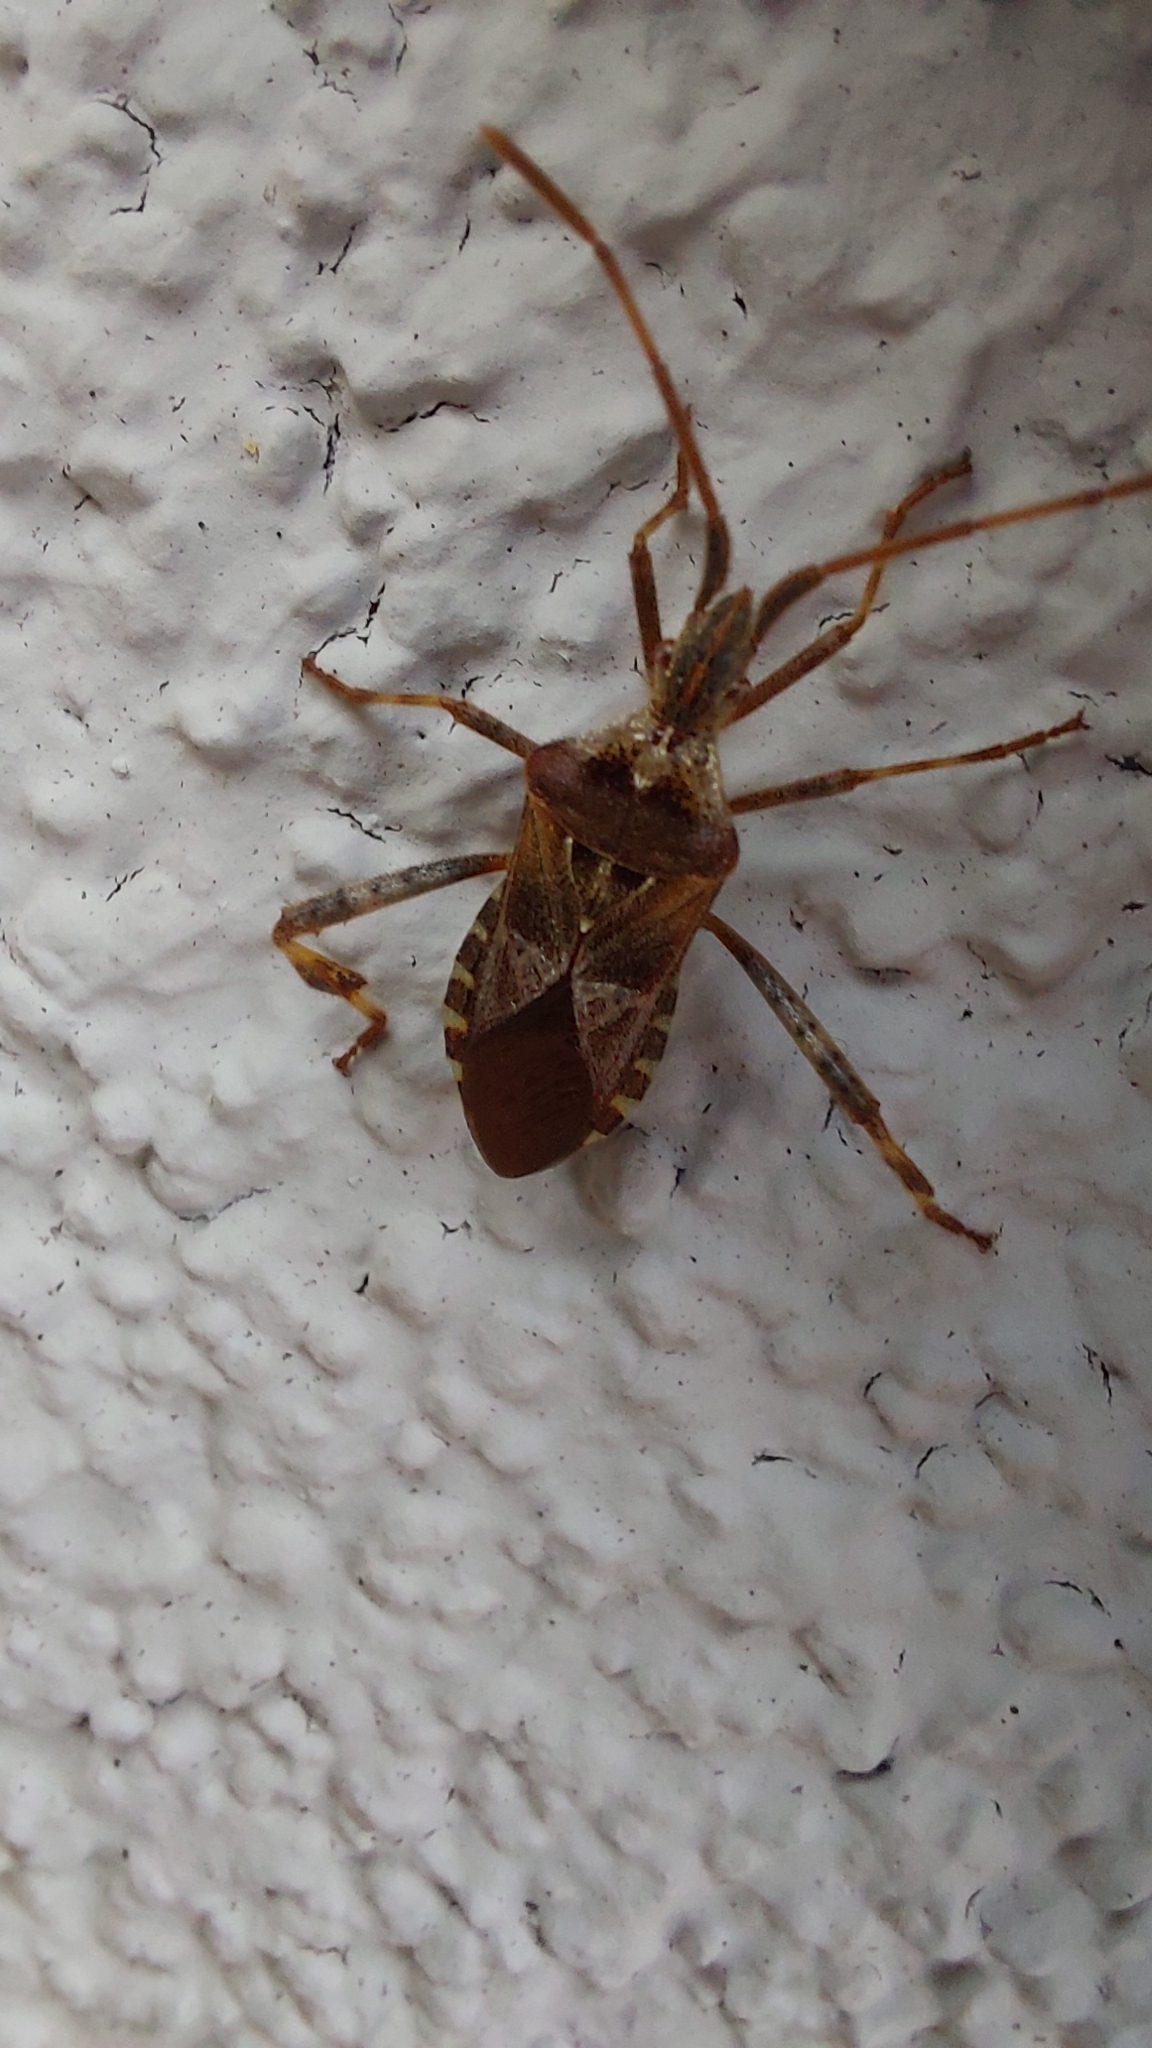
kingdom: Animalia
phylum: Arthropoda
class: Insecta
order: Hemiptera
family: Coreidae
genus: Leptoglossus
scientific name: Leptoglossus occidentalis
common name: Western conifer-seed bug
